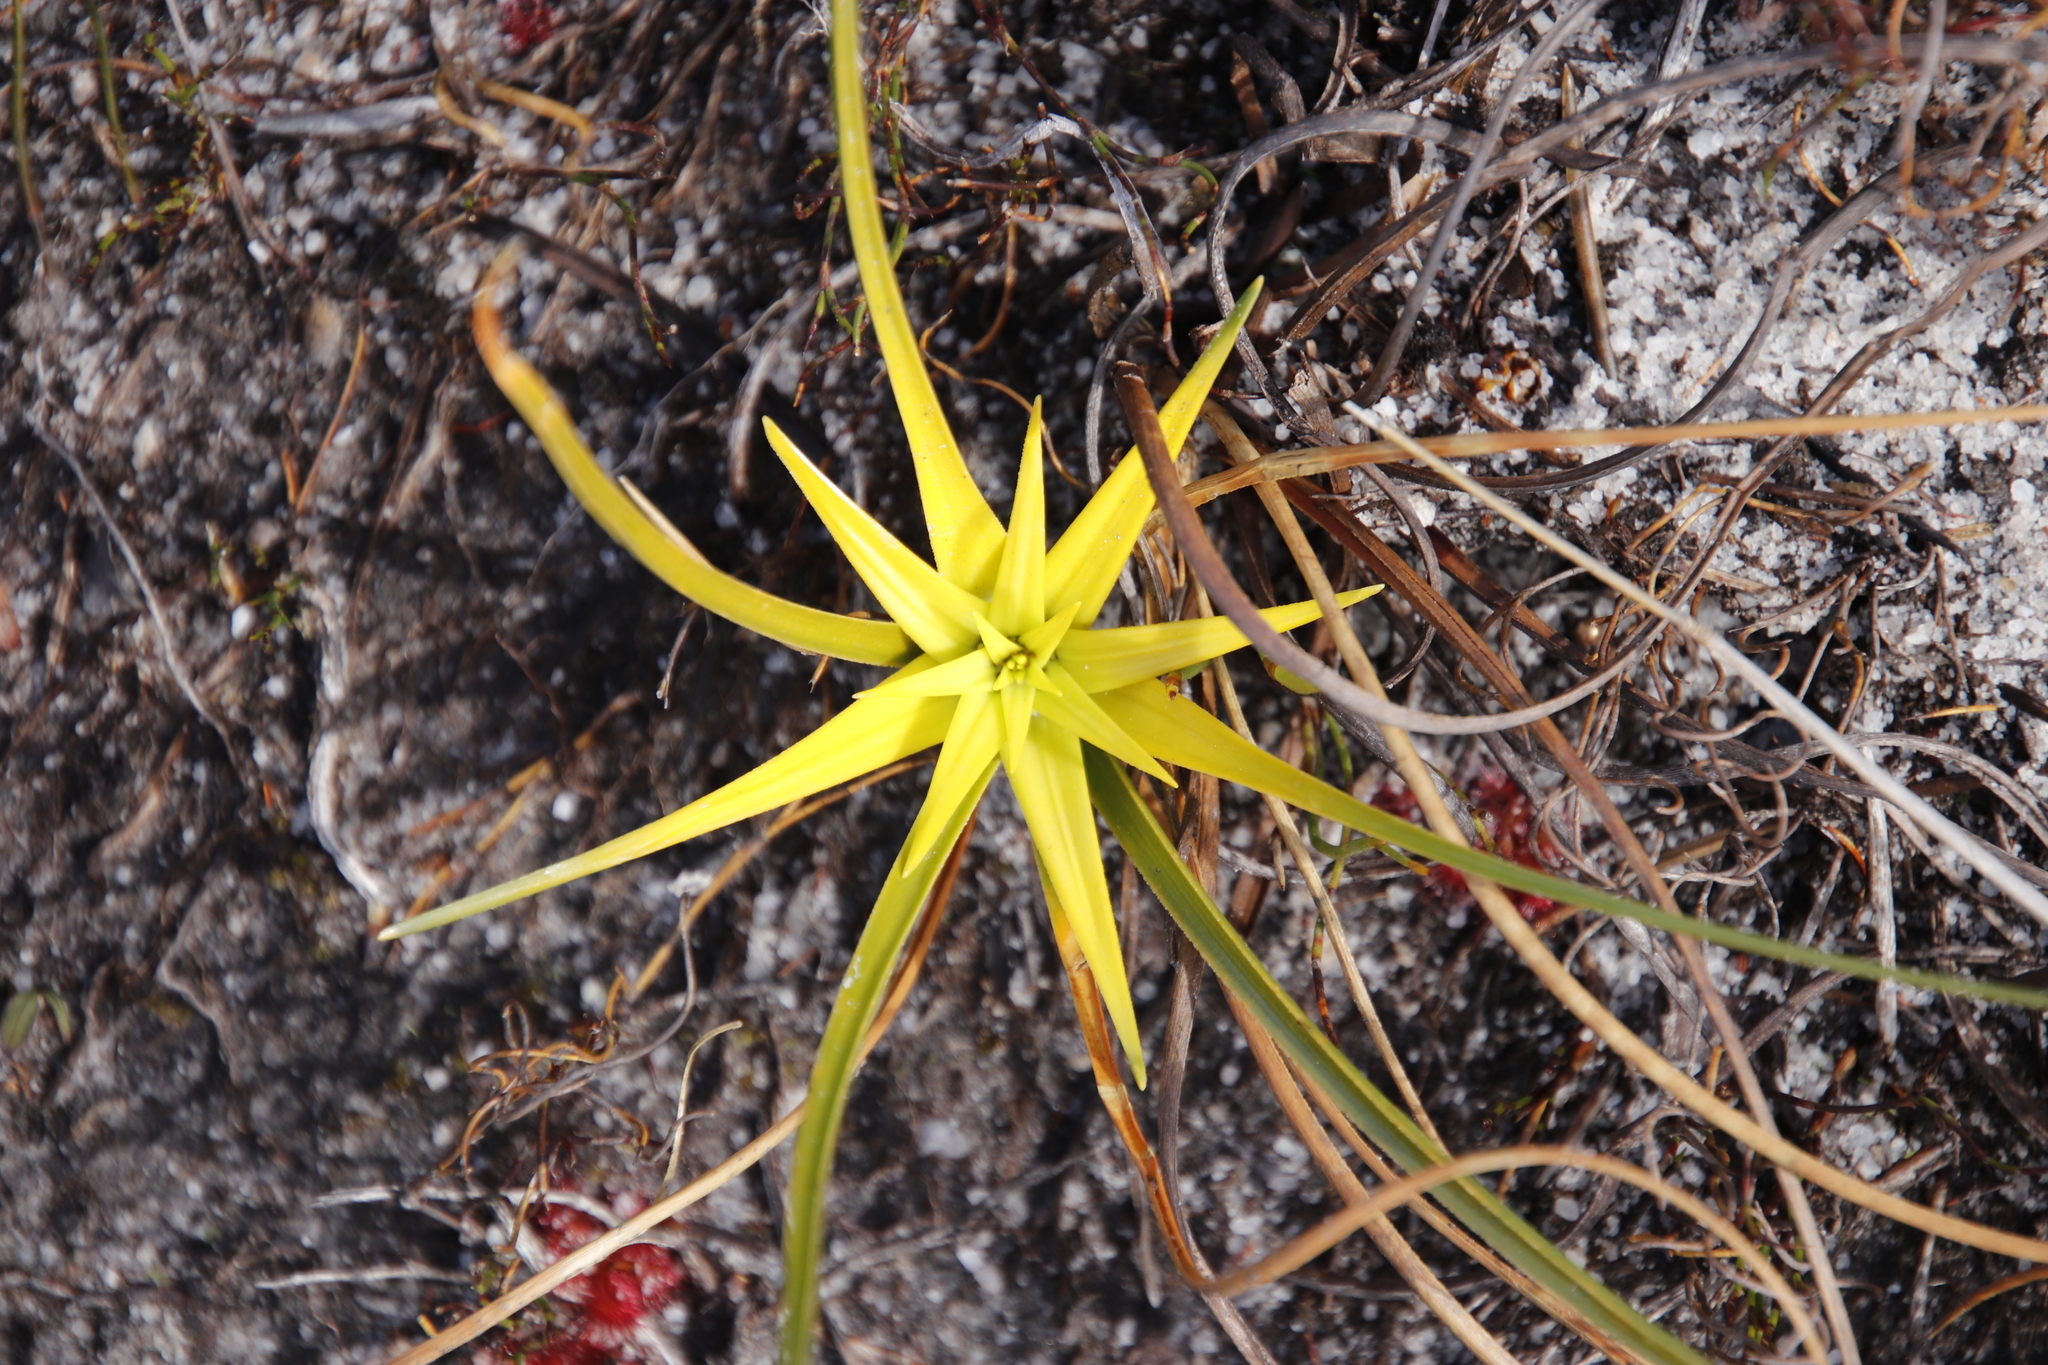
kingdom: Plantae
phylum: Tracheophyta
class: Liliopsida
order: Poales
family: Cyperaceae
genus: Ficinia
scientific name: Ficinia radiata
